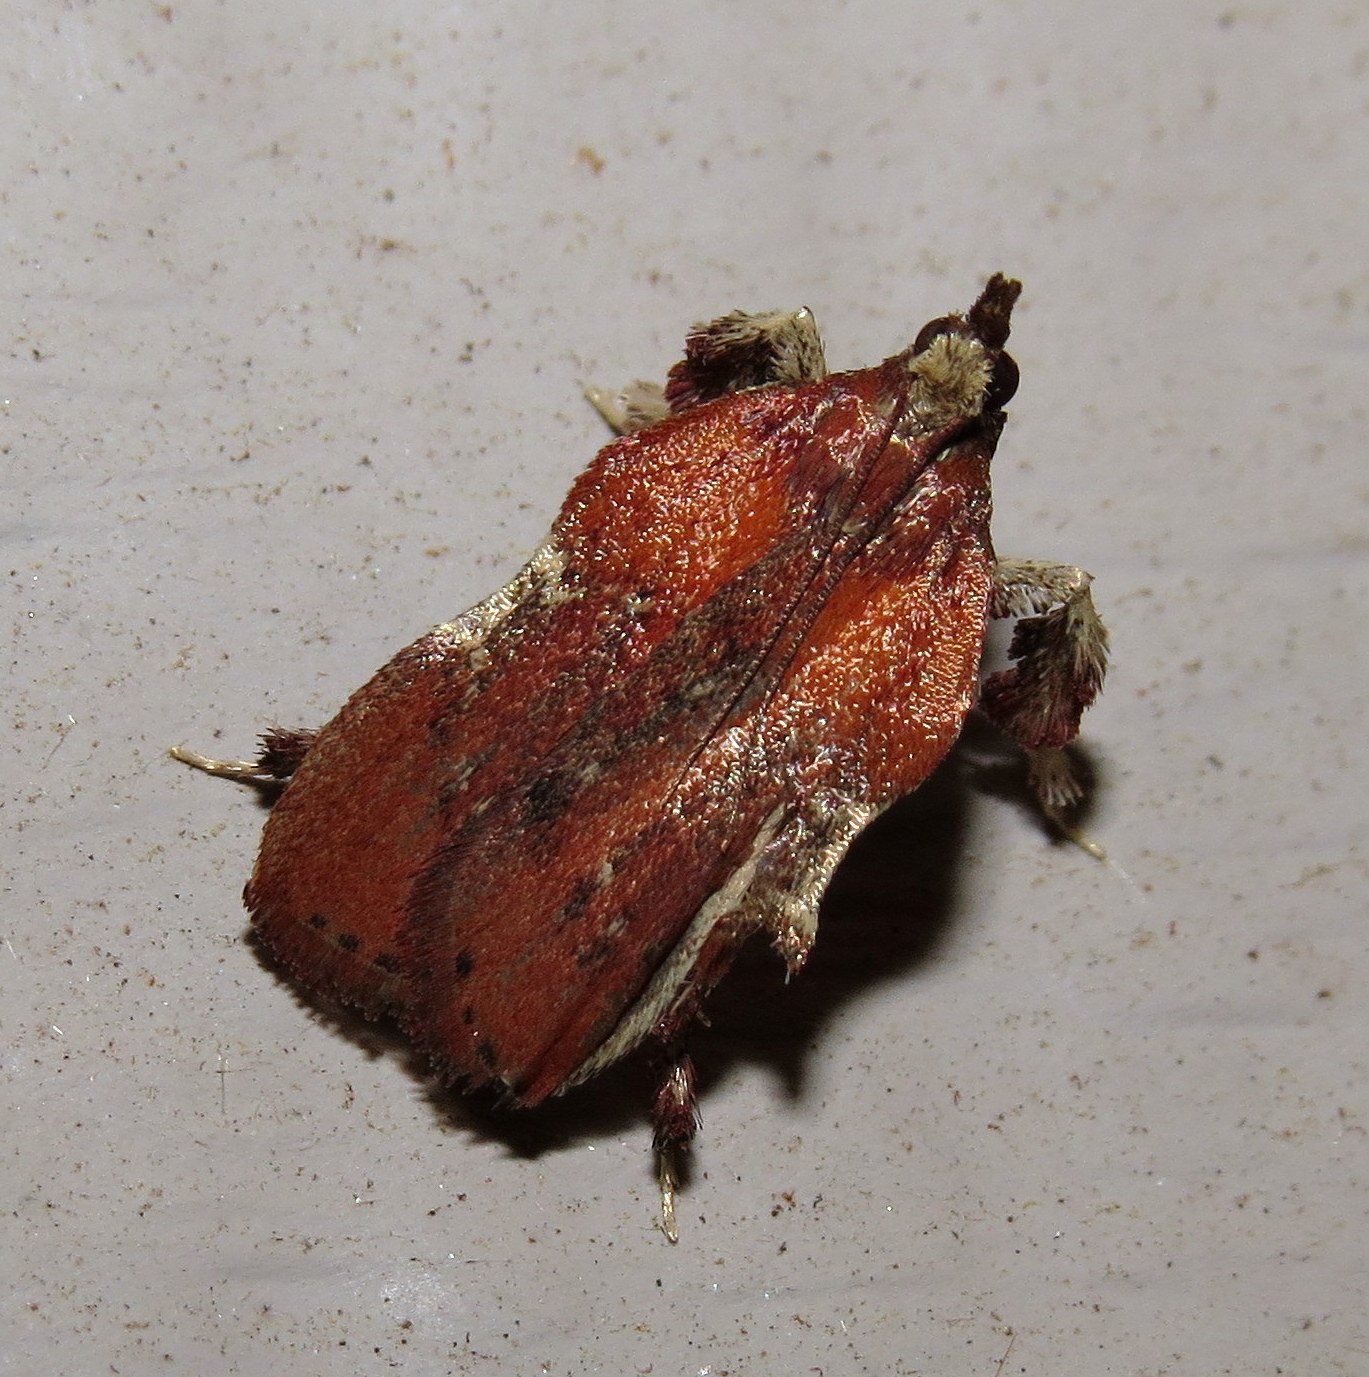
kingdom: Animalia
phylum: Arthropoda
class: Insecta
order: Lepidoptera
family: Pyralidae
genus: Galasa
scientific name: Galasa nigrinodis
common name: Boxwood leaftier moth
